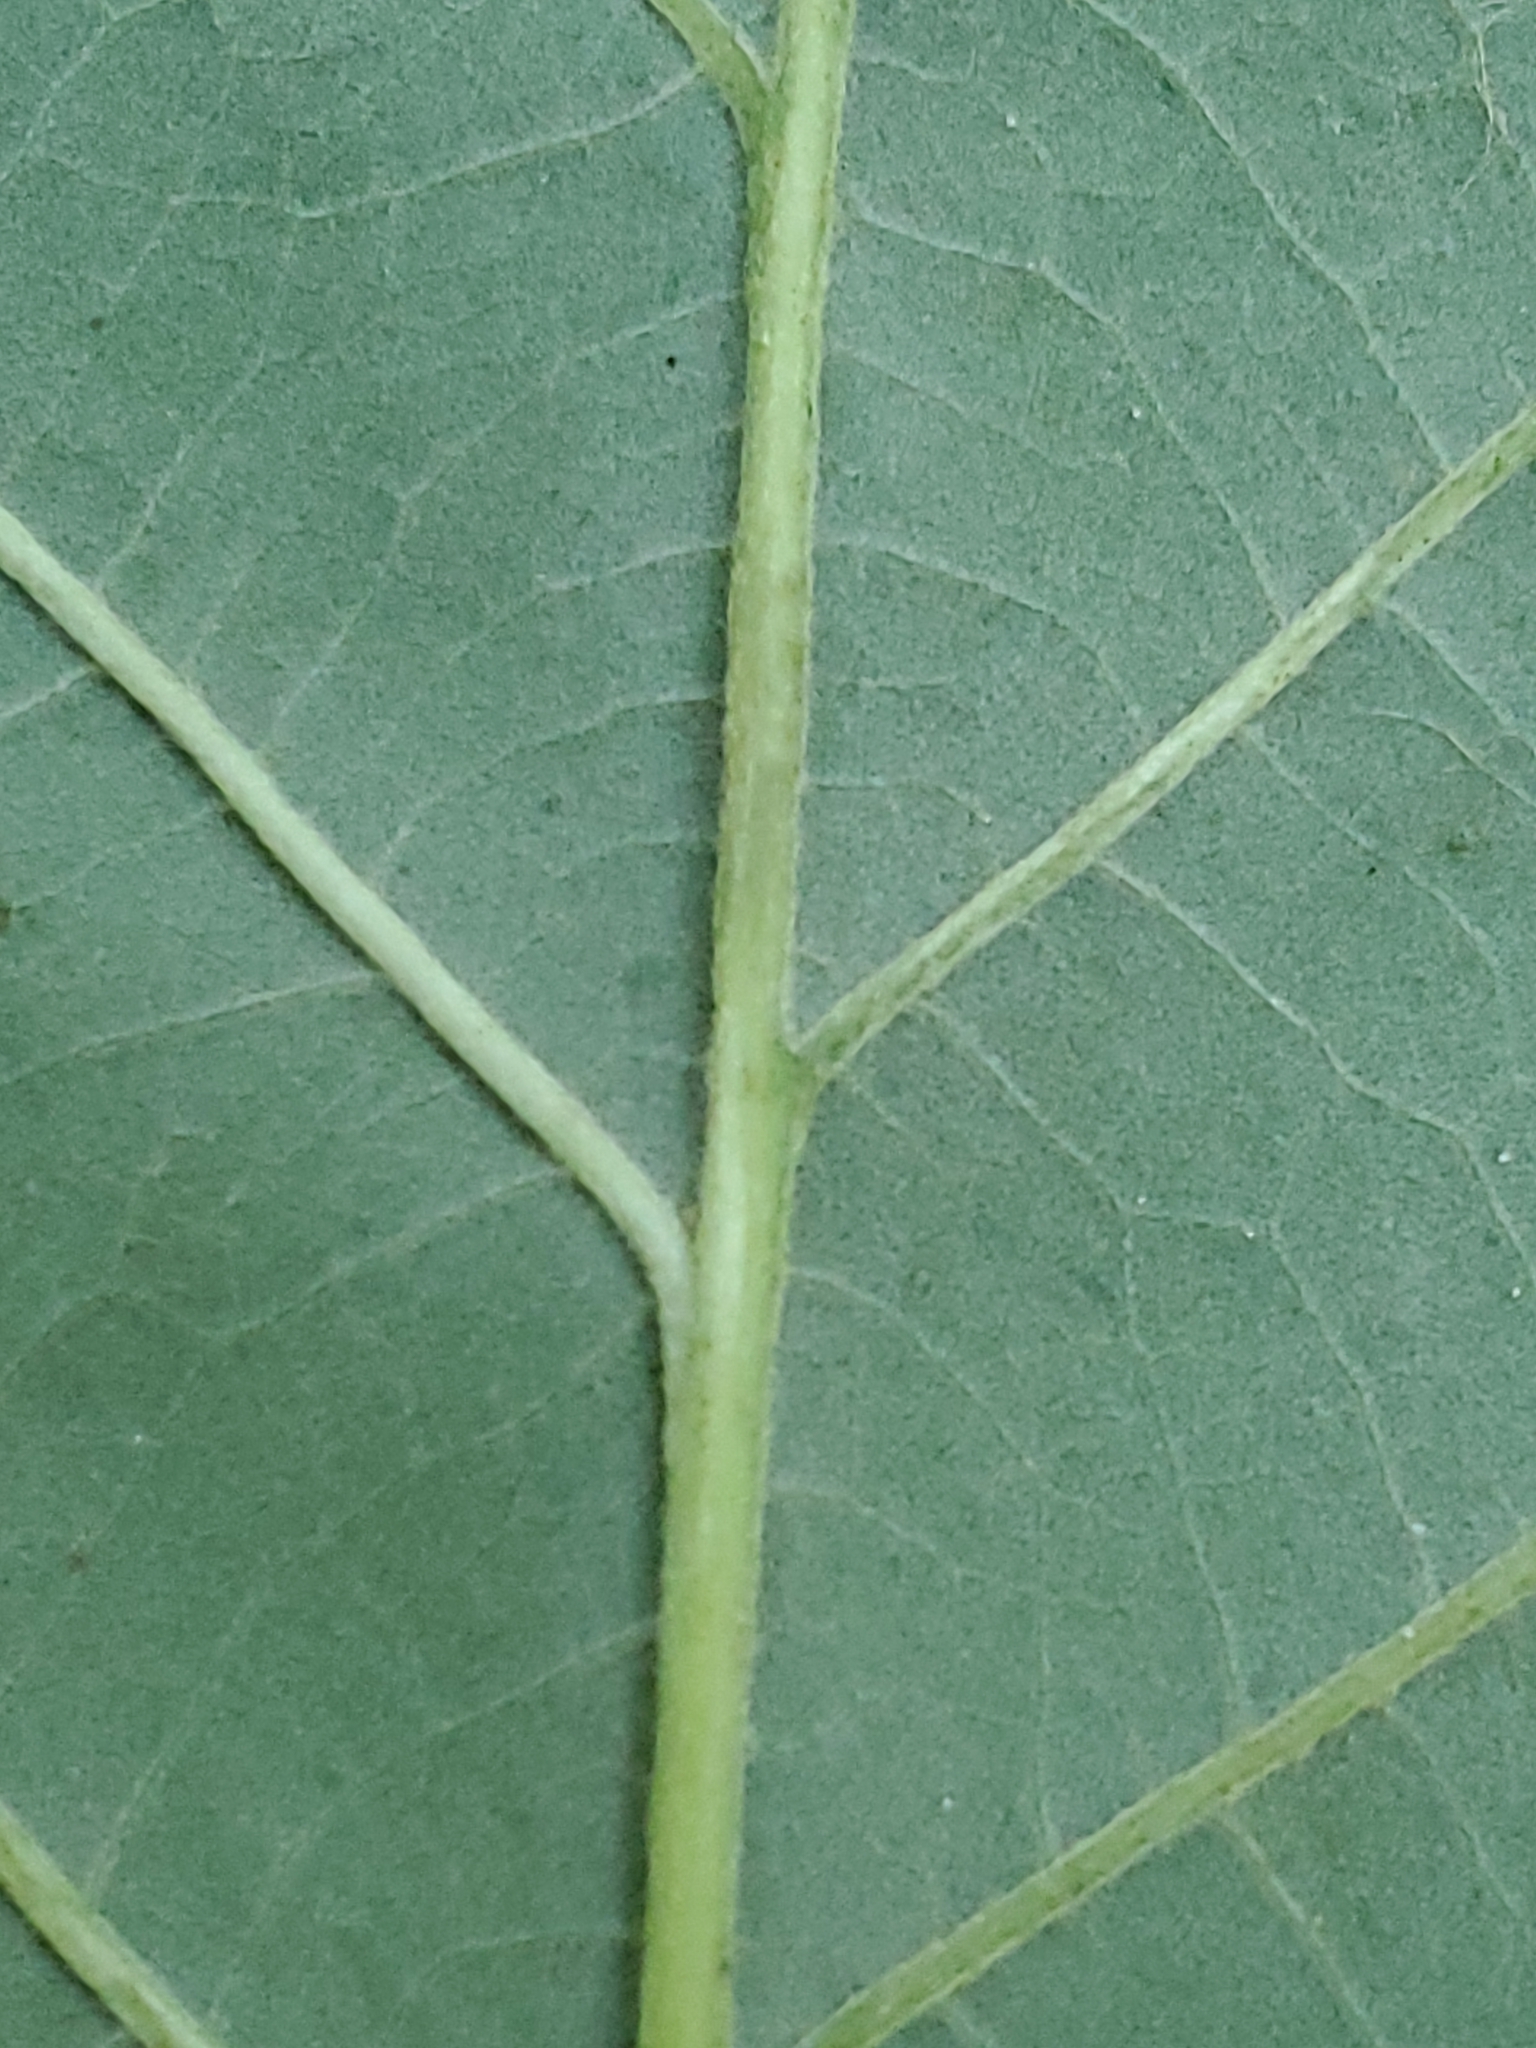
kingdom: Plantae
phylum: Tracheophyta
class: Magnoliopsida
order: Fagales
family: Fagaceae
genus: Quercus
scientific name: Quercus macrocarpa
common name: Bur oak
